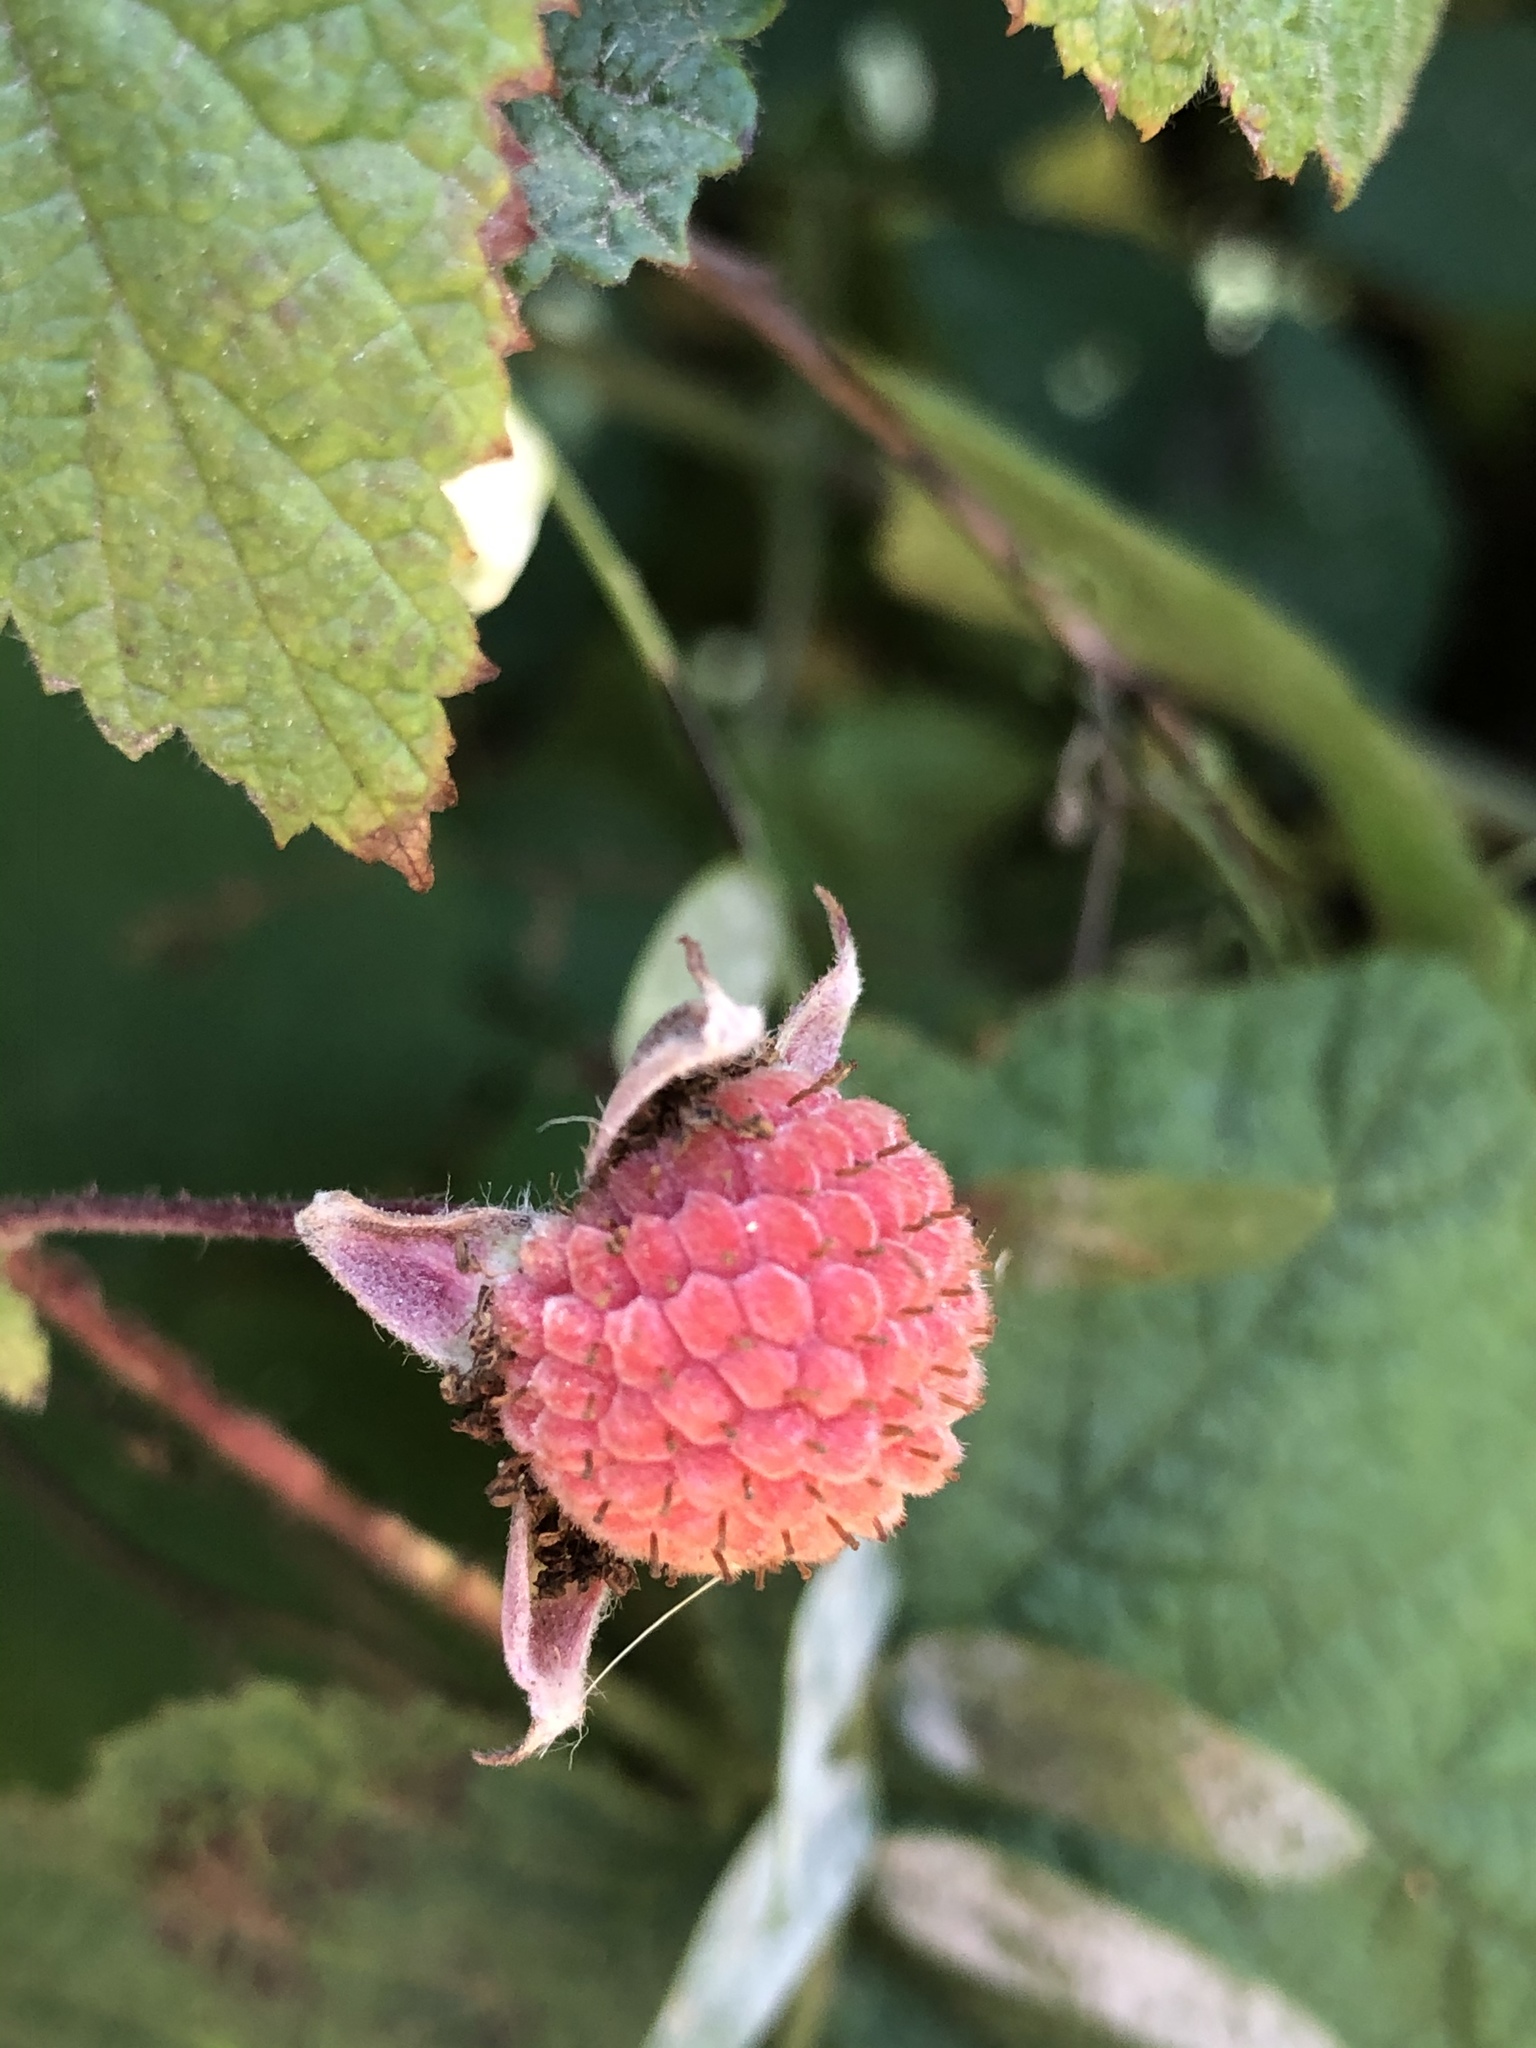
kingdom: Plantae
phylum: Tracheophyta
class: Magnoliopsida
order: Rosales
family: Rosaceae
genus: Rubus
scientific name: Rubus parviflorus
